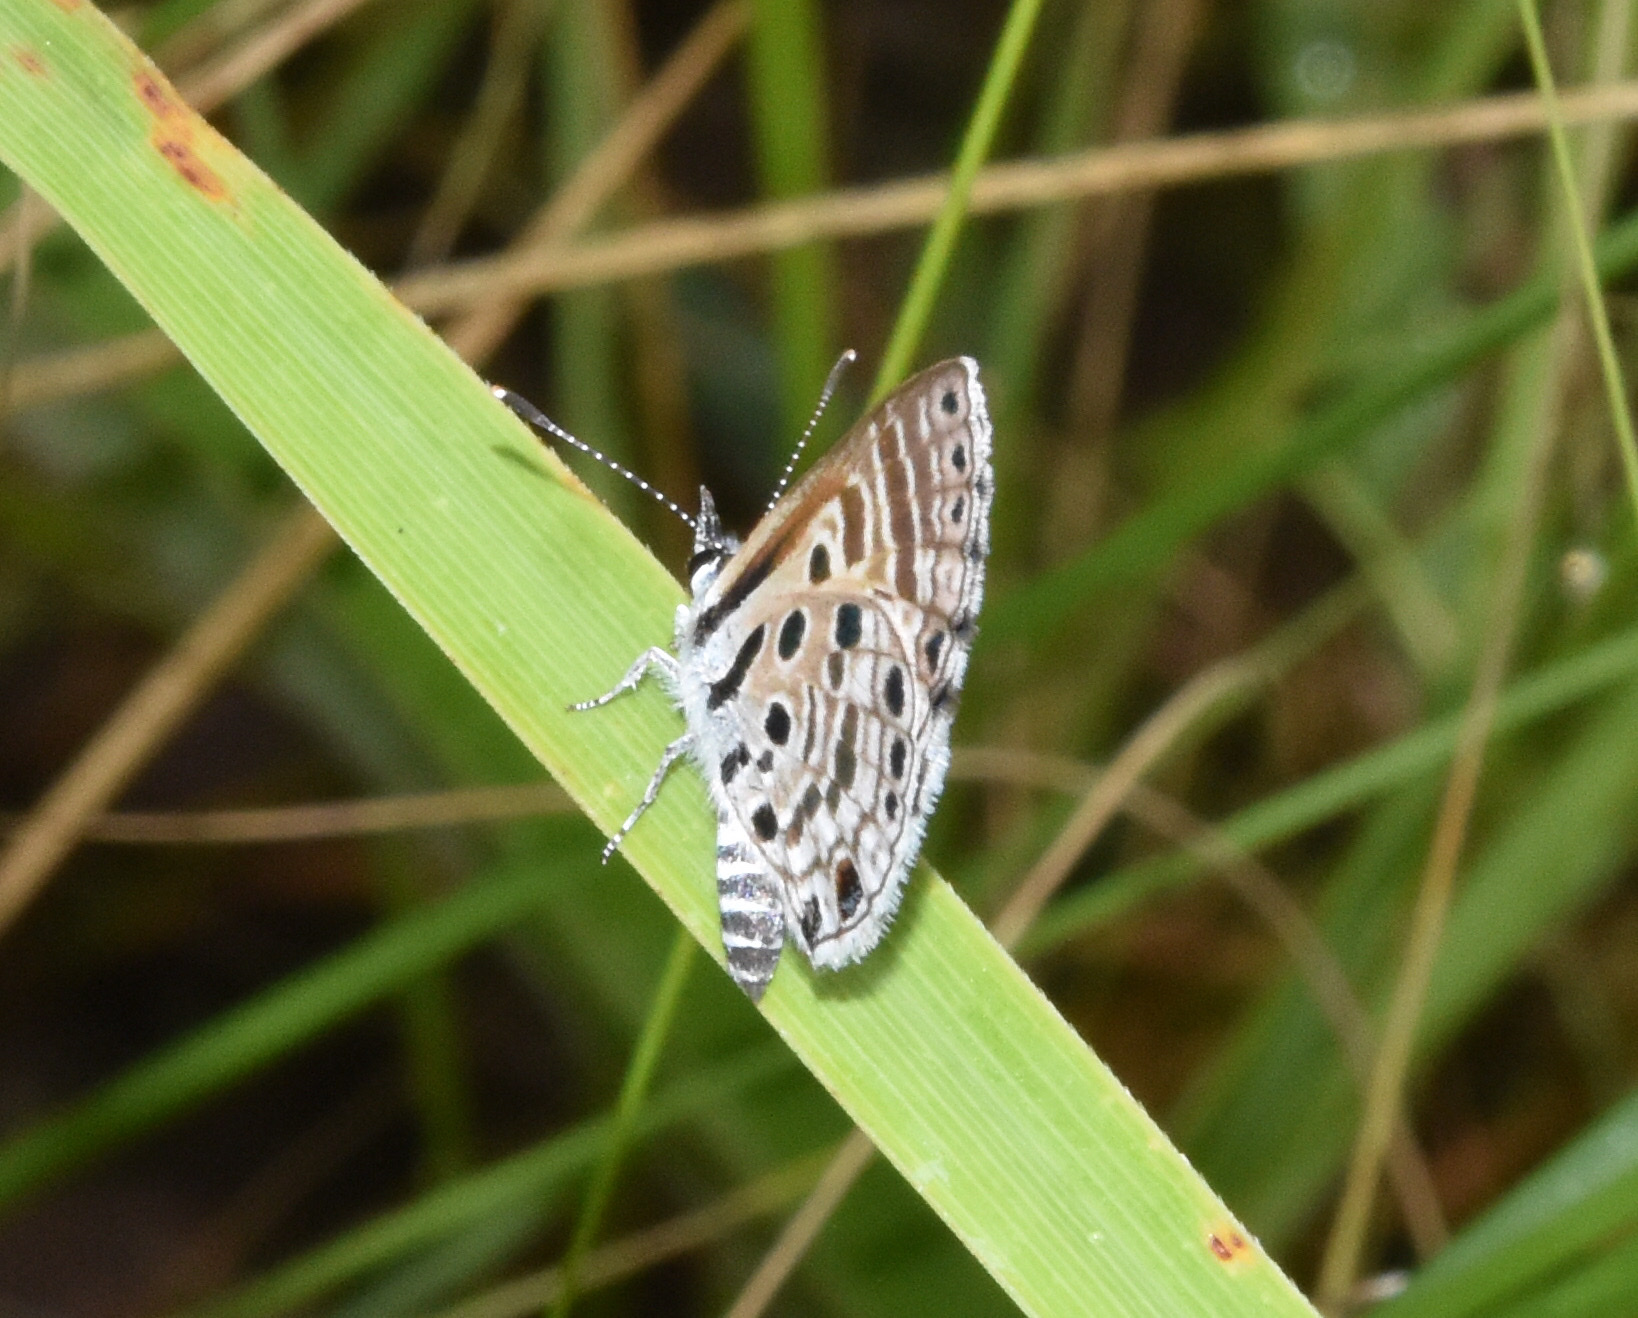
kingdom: Animalia
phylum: Arthropoda
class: Insecta
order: Lepidoptera
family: Lycaenidae
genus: Azanus
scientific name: Azanus jesous
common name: African babul blue
